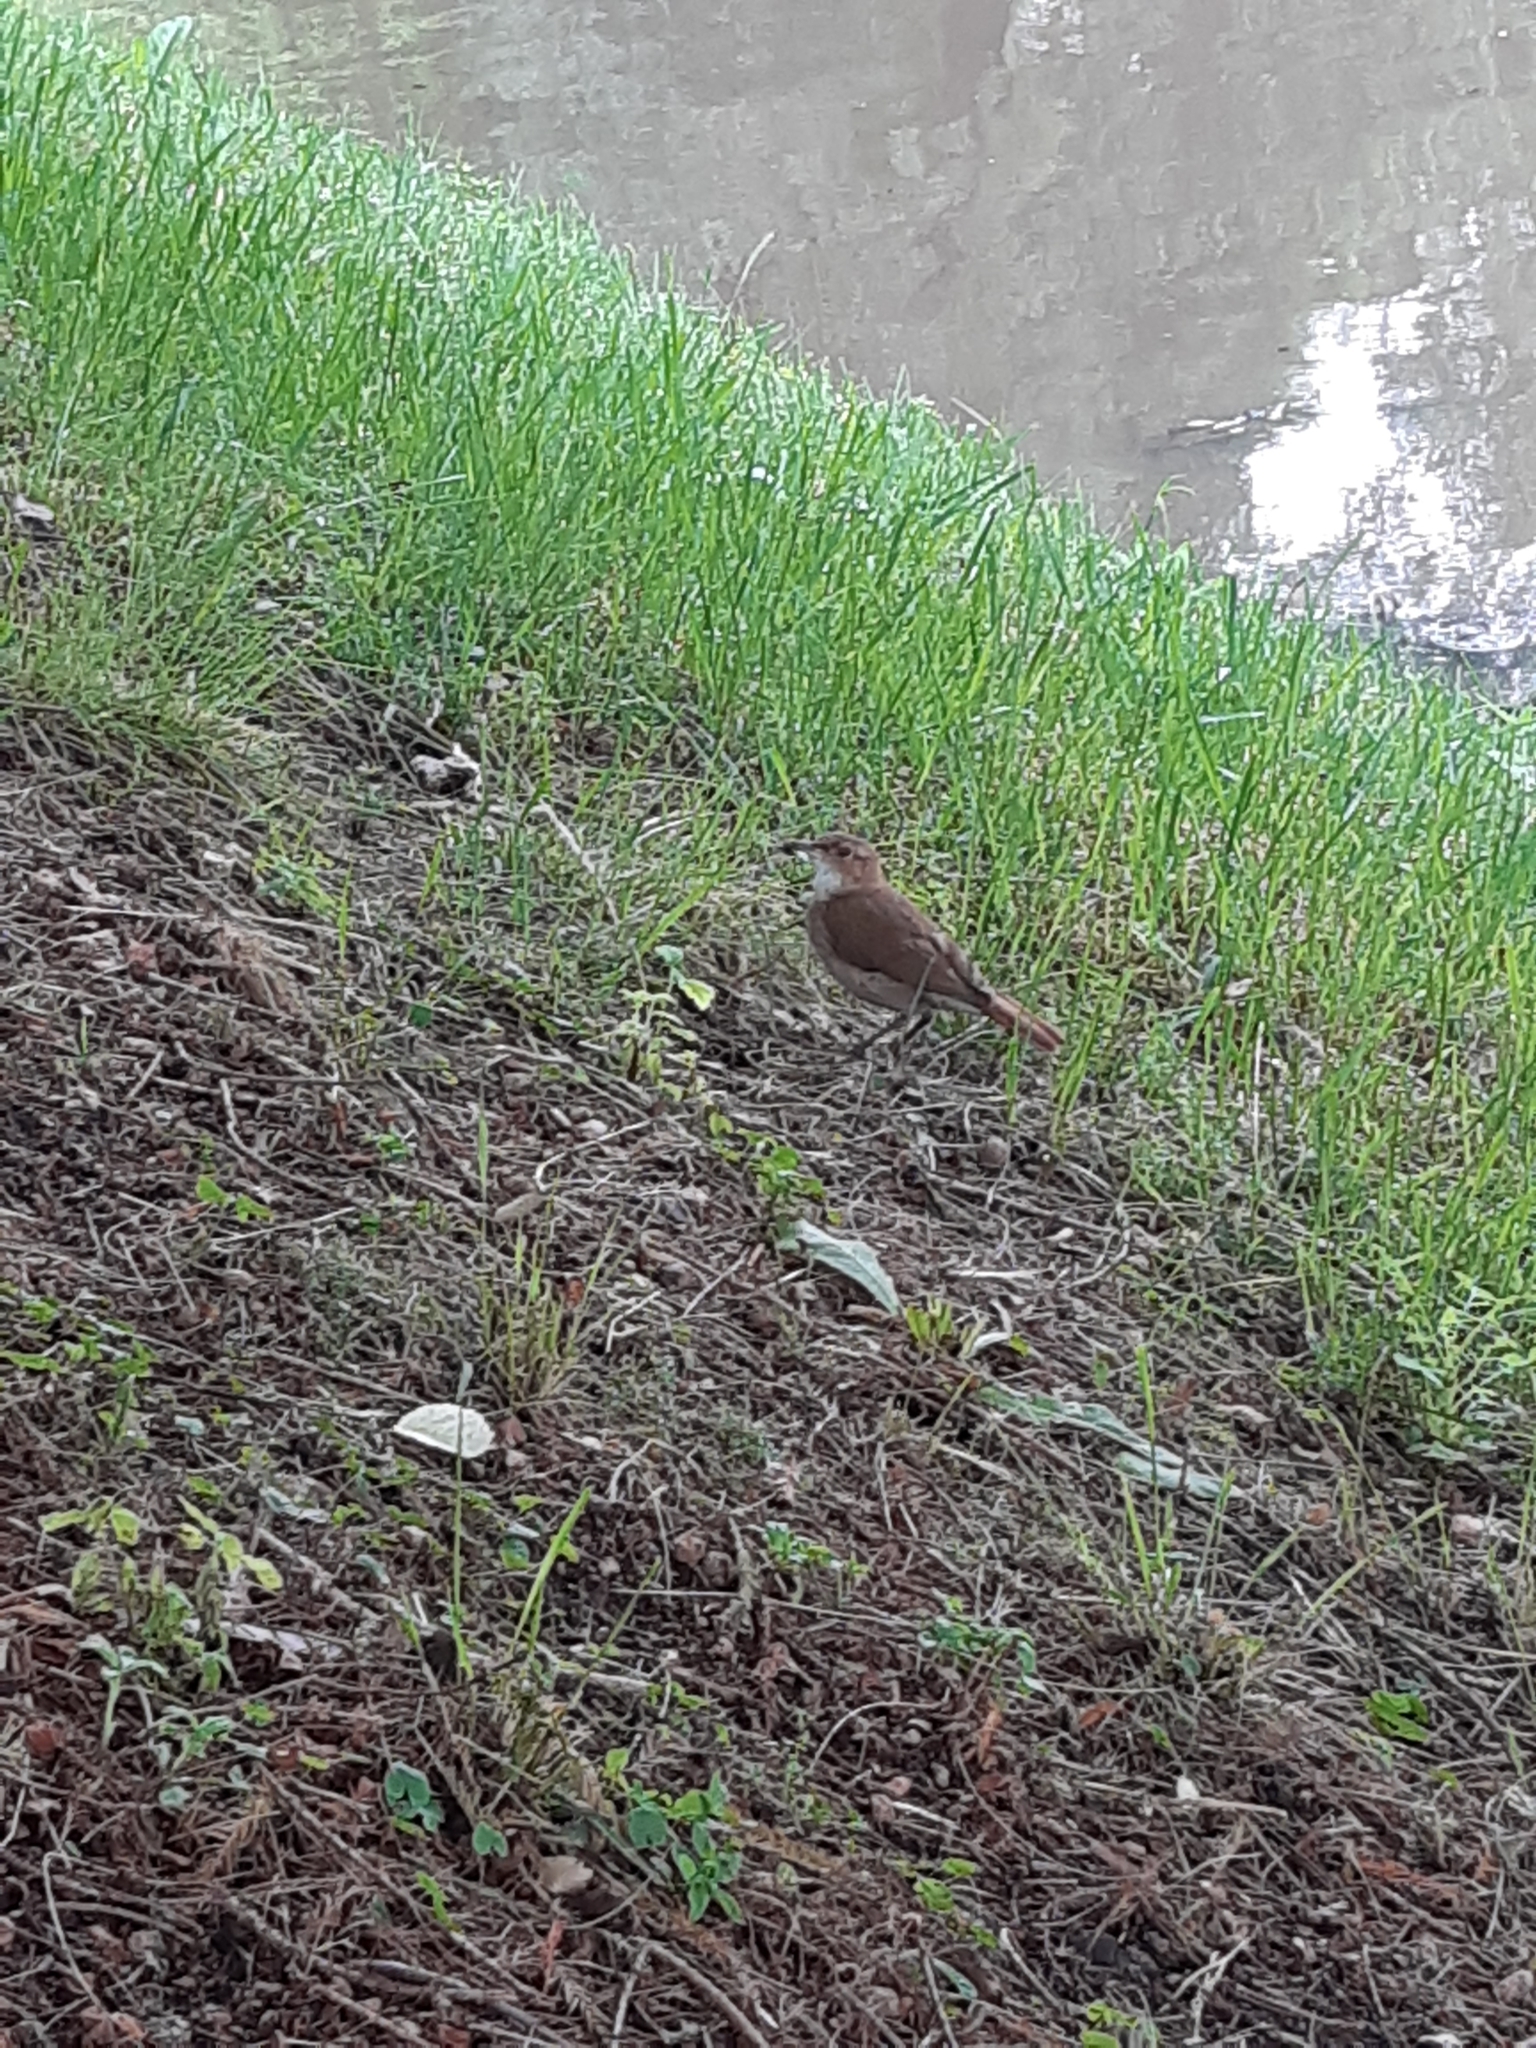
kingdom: Animalia
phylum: Chordata
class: Aves
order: Passeriformes
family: Furnariidae
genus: Furnarius
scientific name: Furnarius rufus
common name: Rufous hornero
